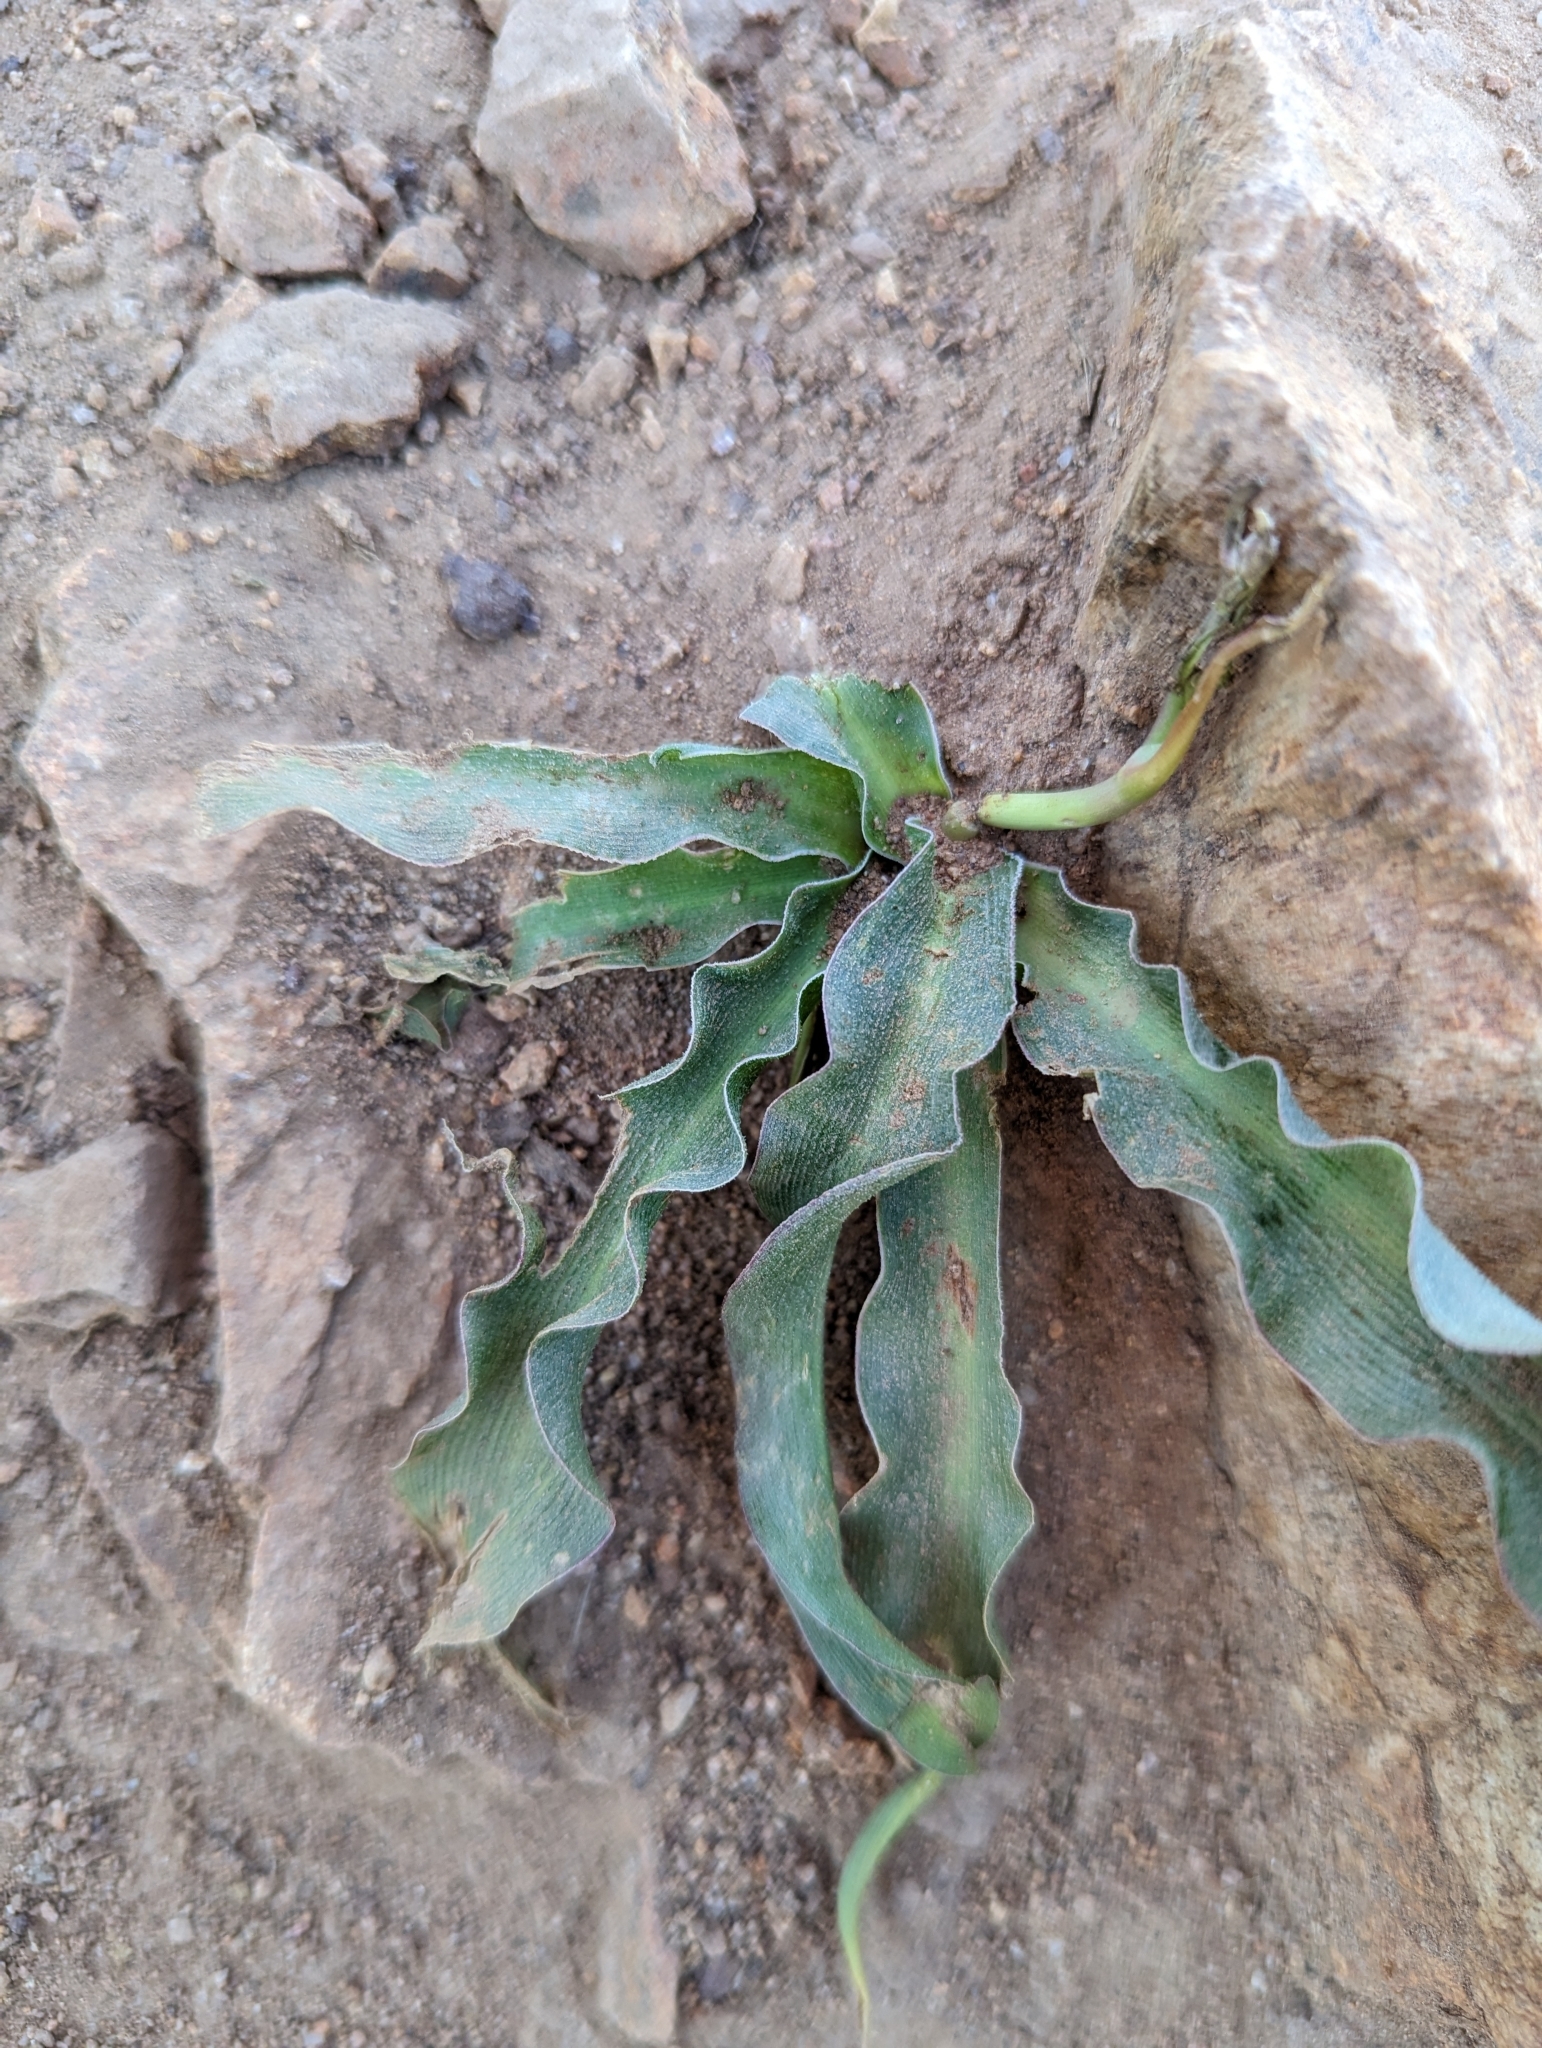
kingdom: Plantae
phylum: Tracheophyta
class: Liliopsida
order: Asparagales
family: Asparagaceae
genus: Hooveria
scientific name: Hooveria parviflora
